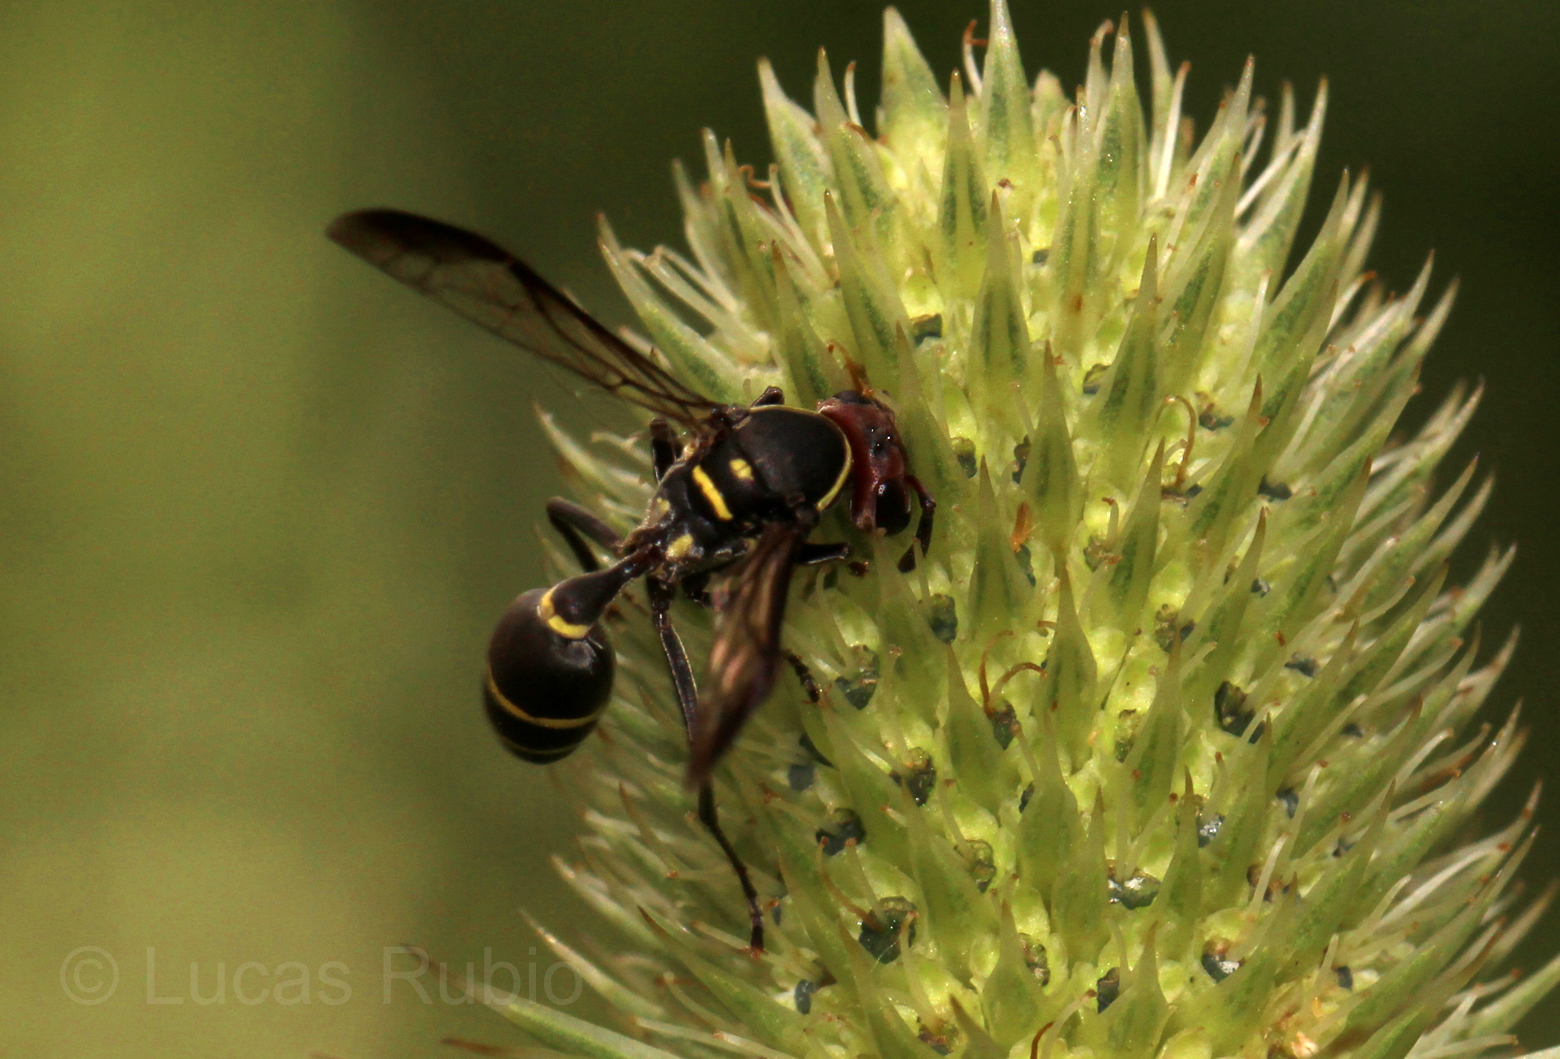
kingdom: Animalia
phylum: Arthropoda
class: Insecta
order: Hymenoptera
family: Eumenidae
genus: Polybia
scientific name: Polybia ruficeps
